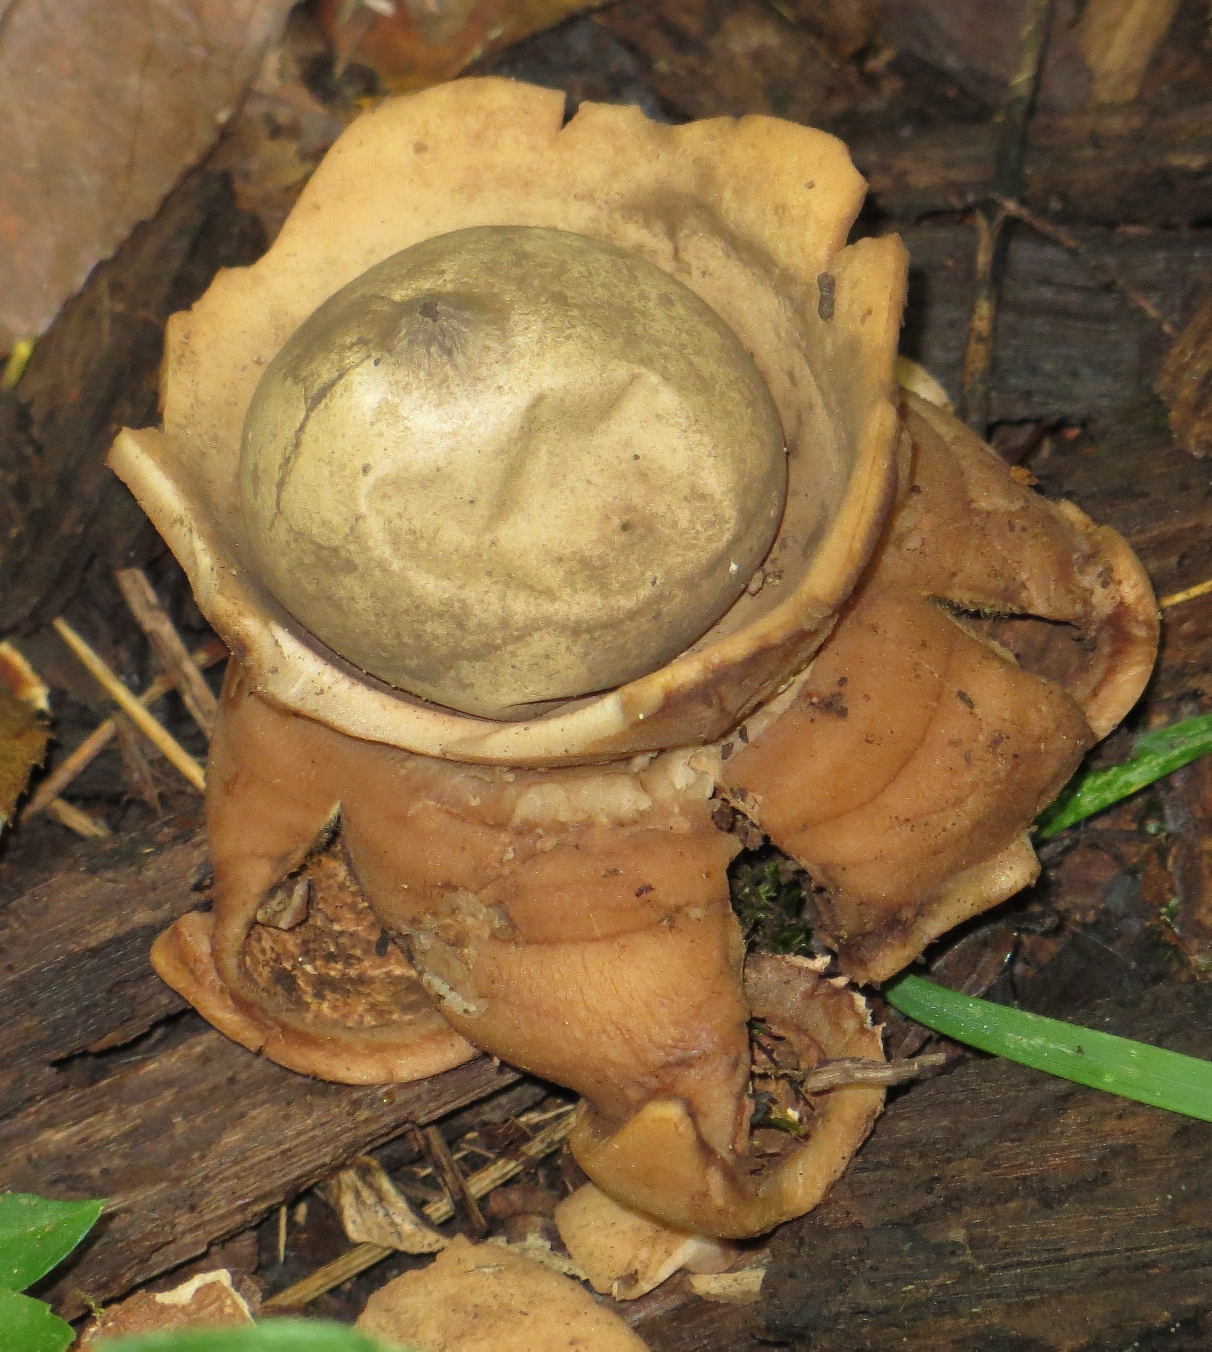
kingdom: Fungi
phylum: Basidiomycota
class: Agaricomycetes
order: Geastrales
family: Geastraceae
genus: Geastrum
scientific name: Geastrum triplex
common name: Collared earthstar
